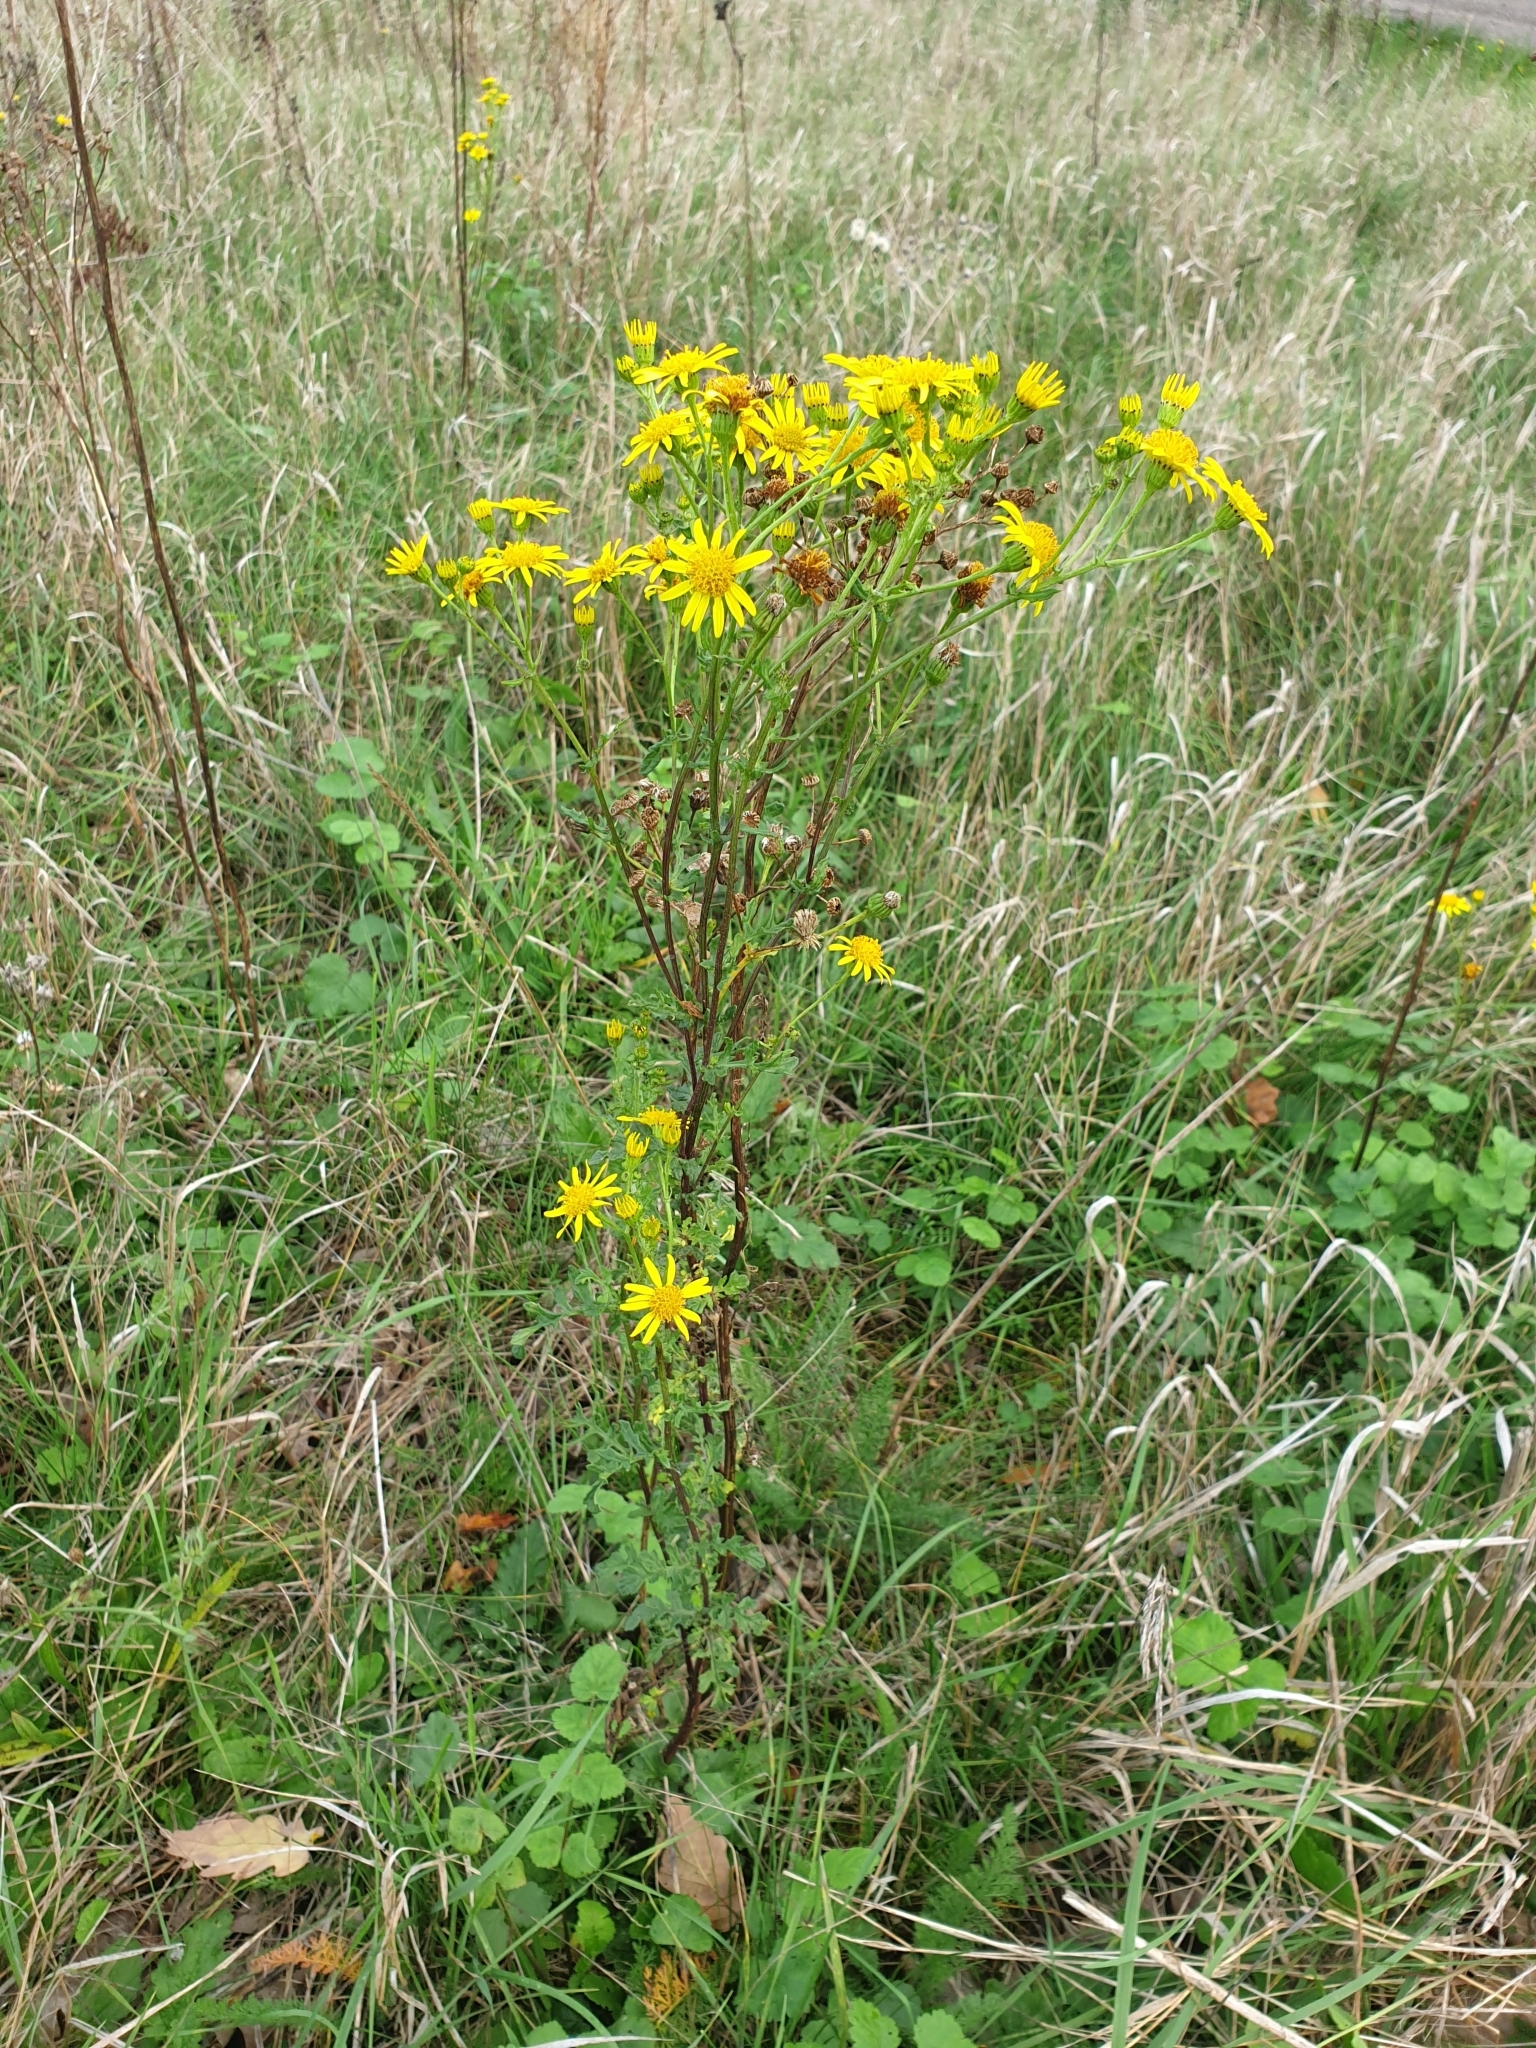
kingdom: Plantae
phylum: Tracheophyta
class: Magnoliopsida
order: Asterales
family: Asteraceae
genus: Jacobaea
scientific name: Jacobaea vulgaris
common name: Stinking willie
